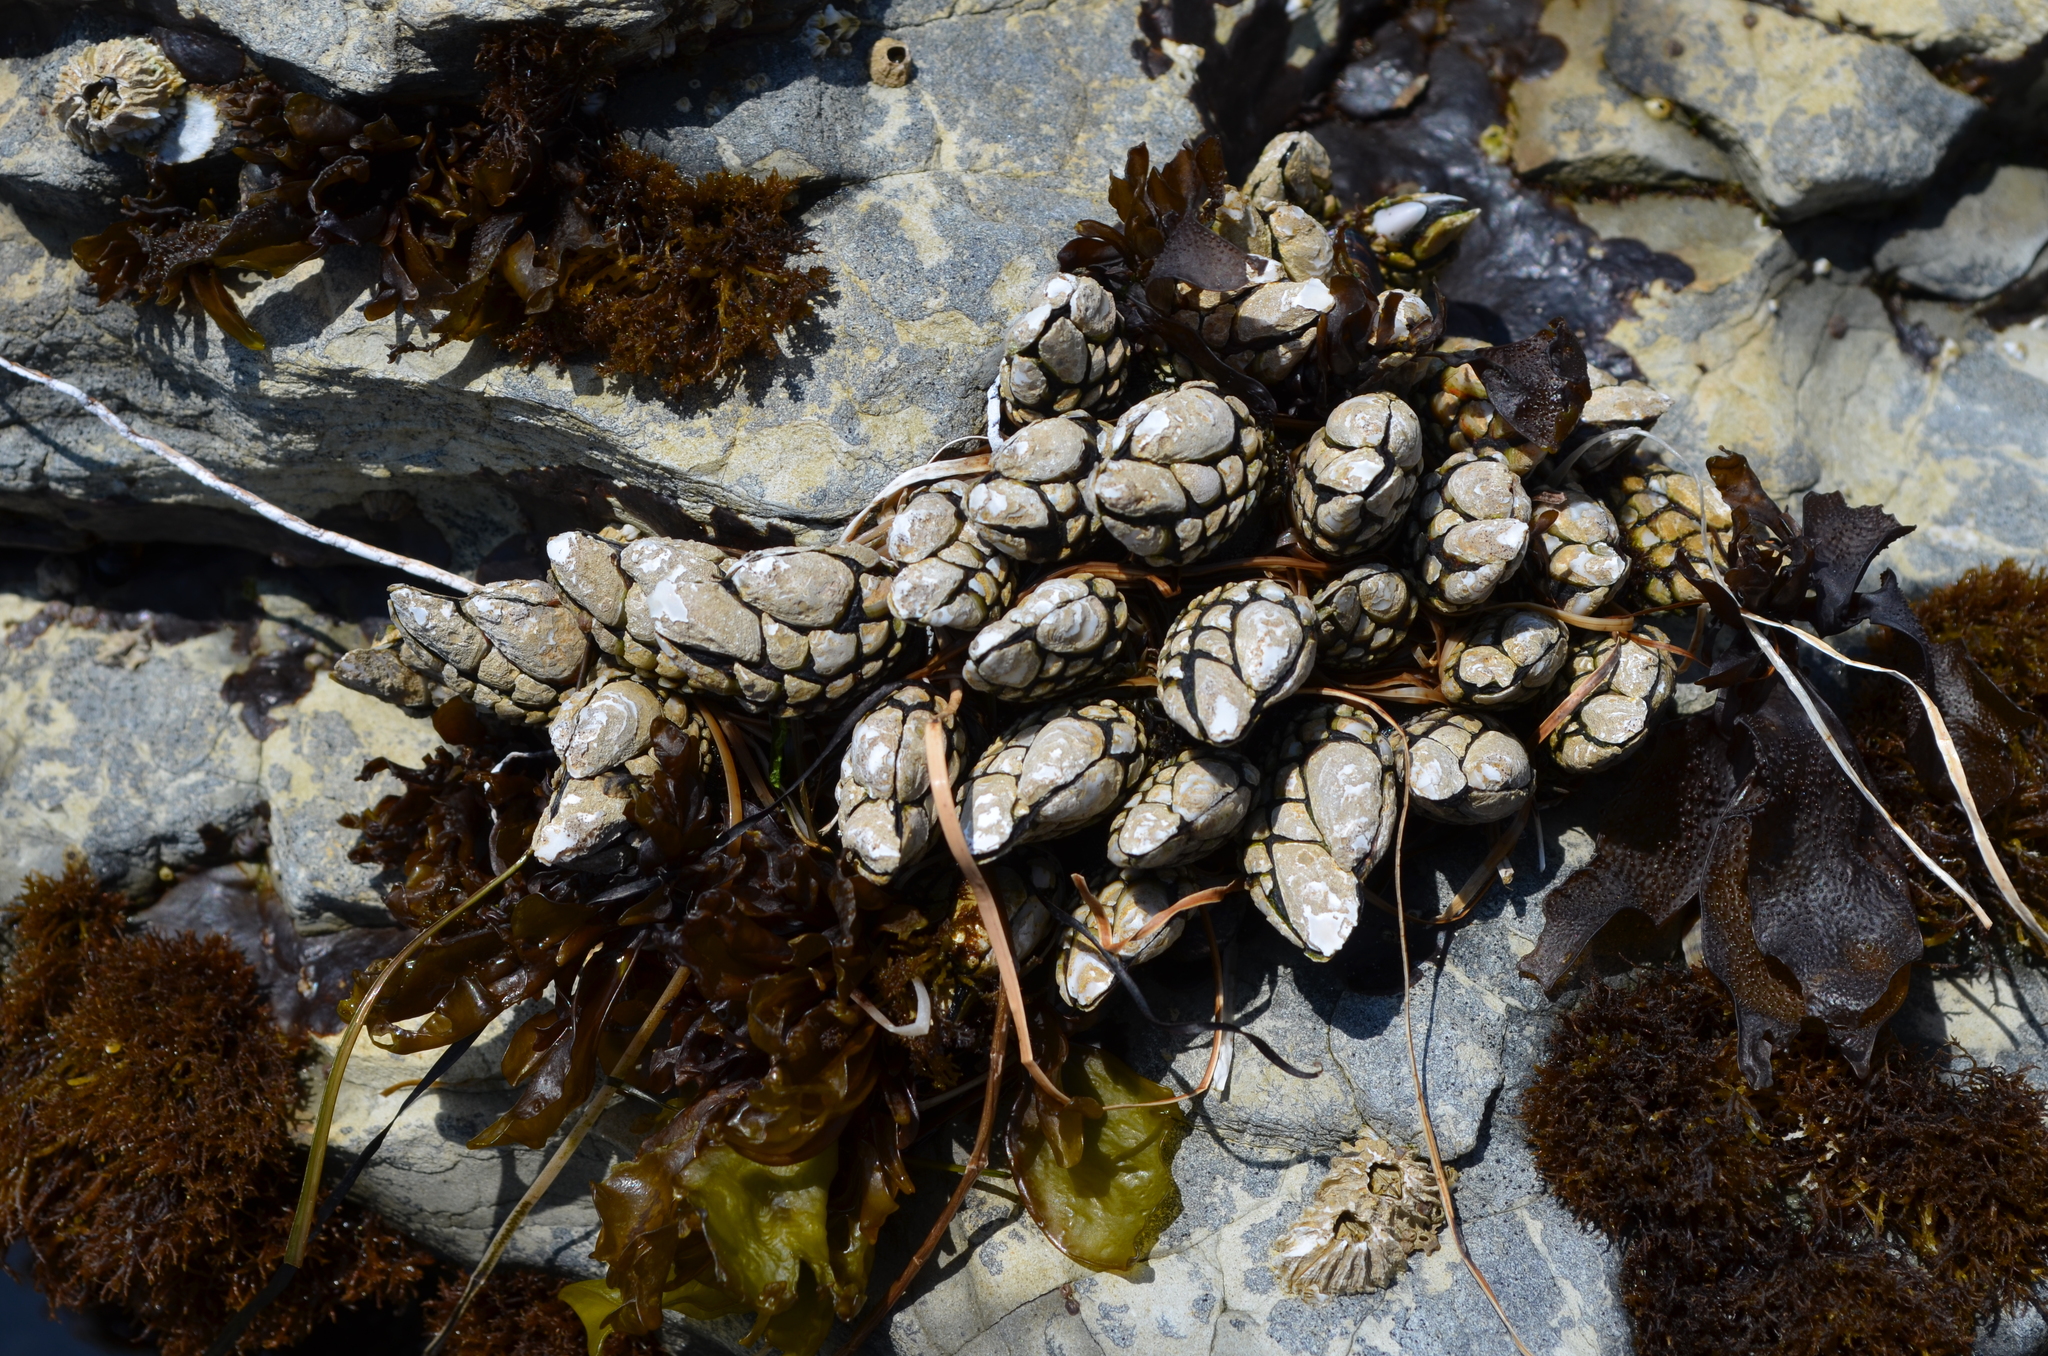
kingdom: Animalia
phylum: Arthropoda
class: Maxillopoda
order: Pedunculata
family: Pollicipedidae
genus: Pollicipes
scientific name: Pollicipes polymerus
